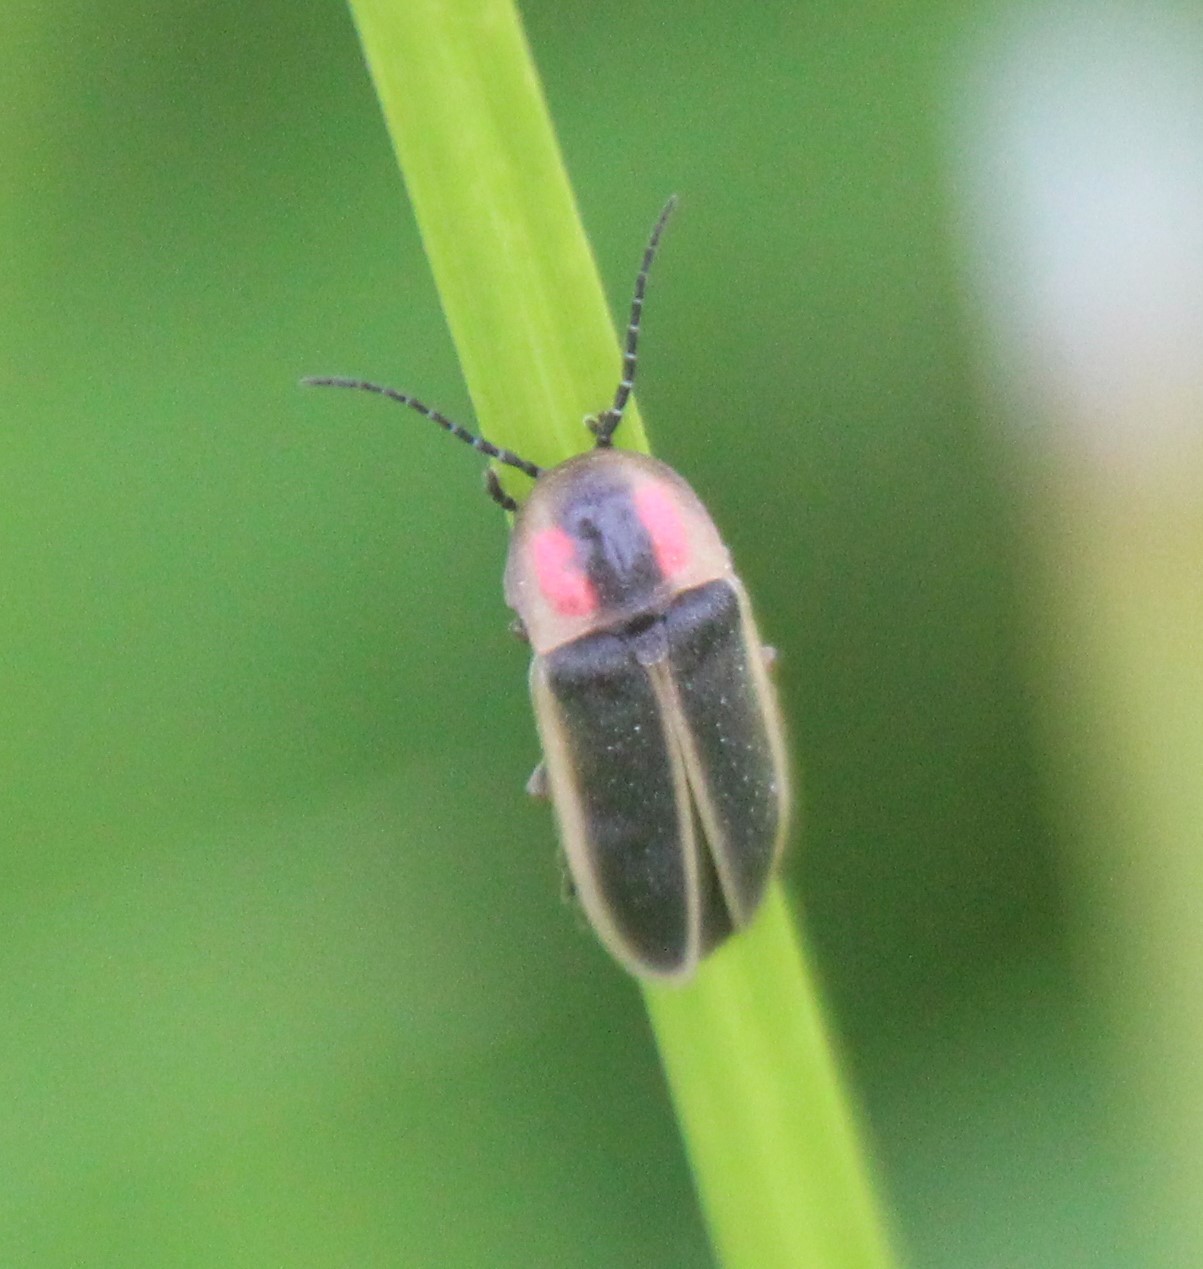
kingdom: Animalia
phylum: Arthropoda
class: Insecta
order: Coleoptera
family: Lampyridae
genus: Photinus
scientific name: Photinus ignitus
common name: Delayed photinus firefly
